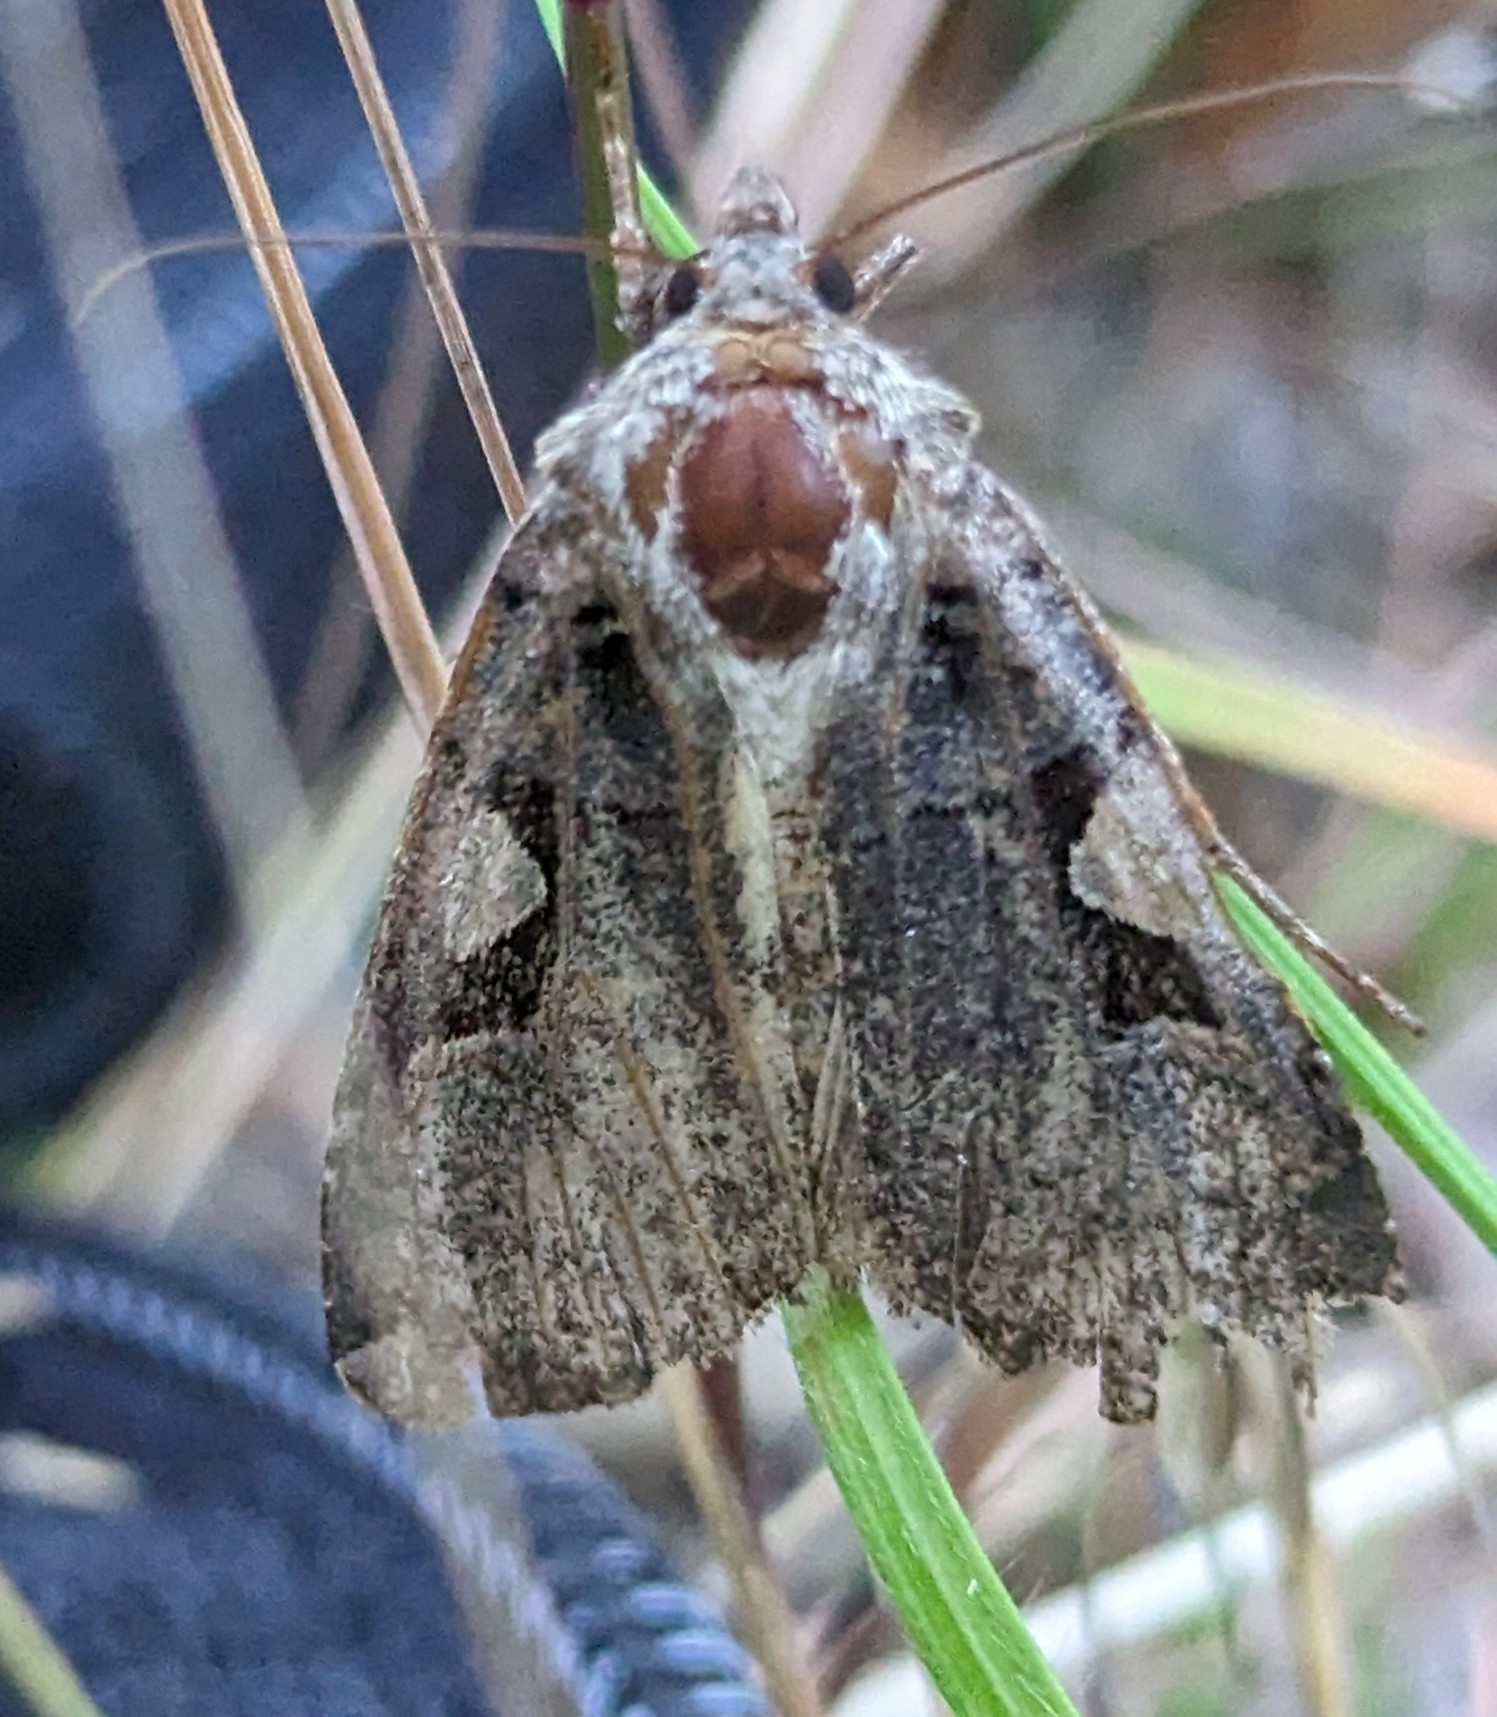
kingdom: Animalia
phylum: Arthropoda
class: Insecta
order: Lepidoptera
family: Noctuidae
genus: Xestia
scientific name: Xestia c-nigrum
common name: Setaceous hebrew character
